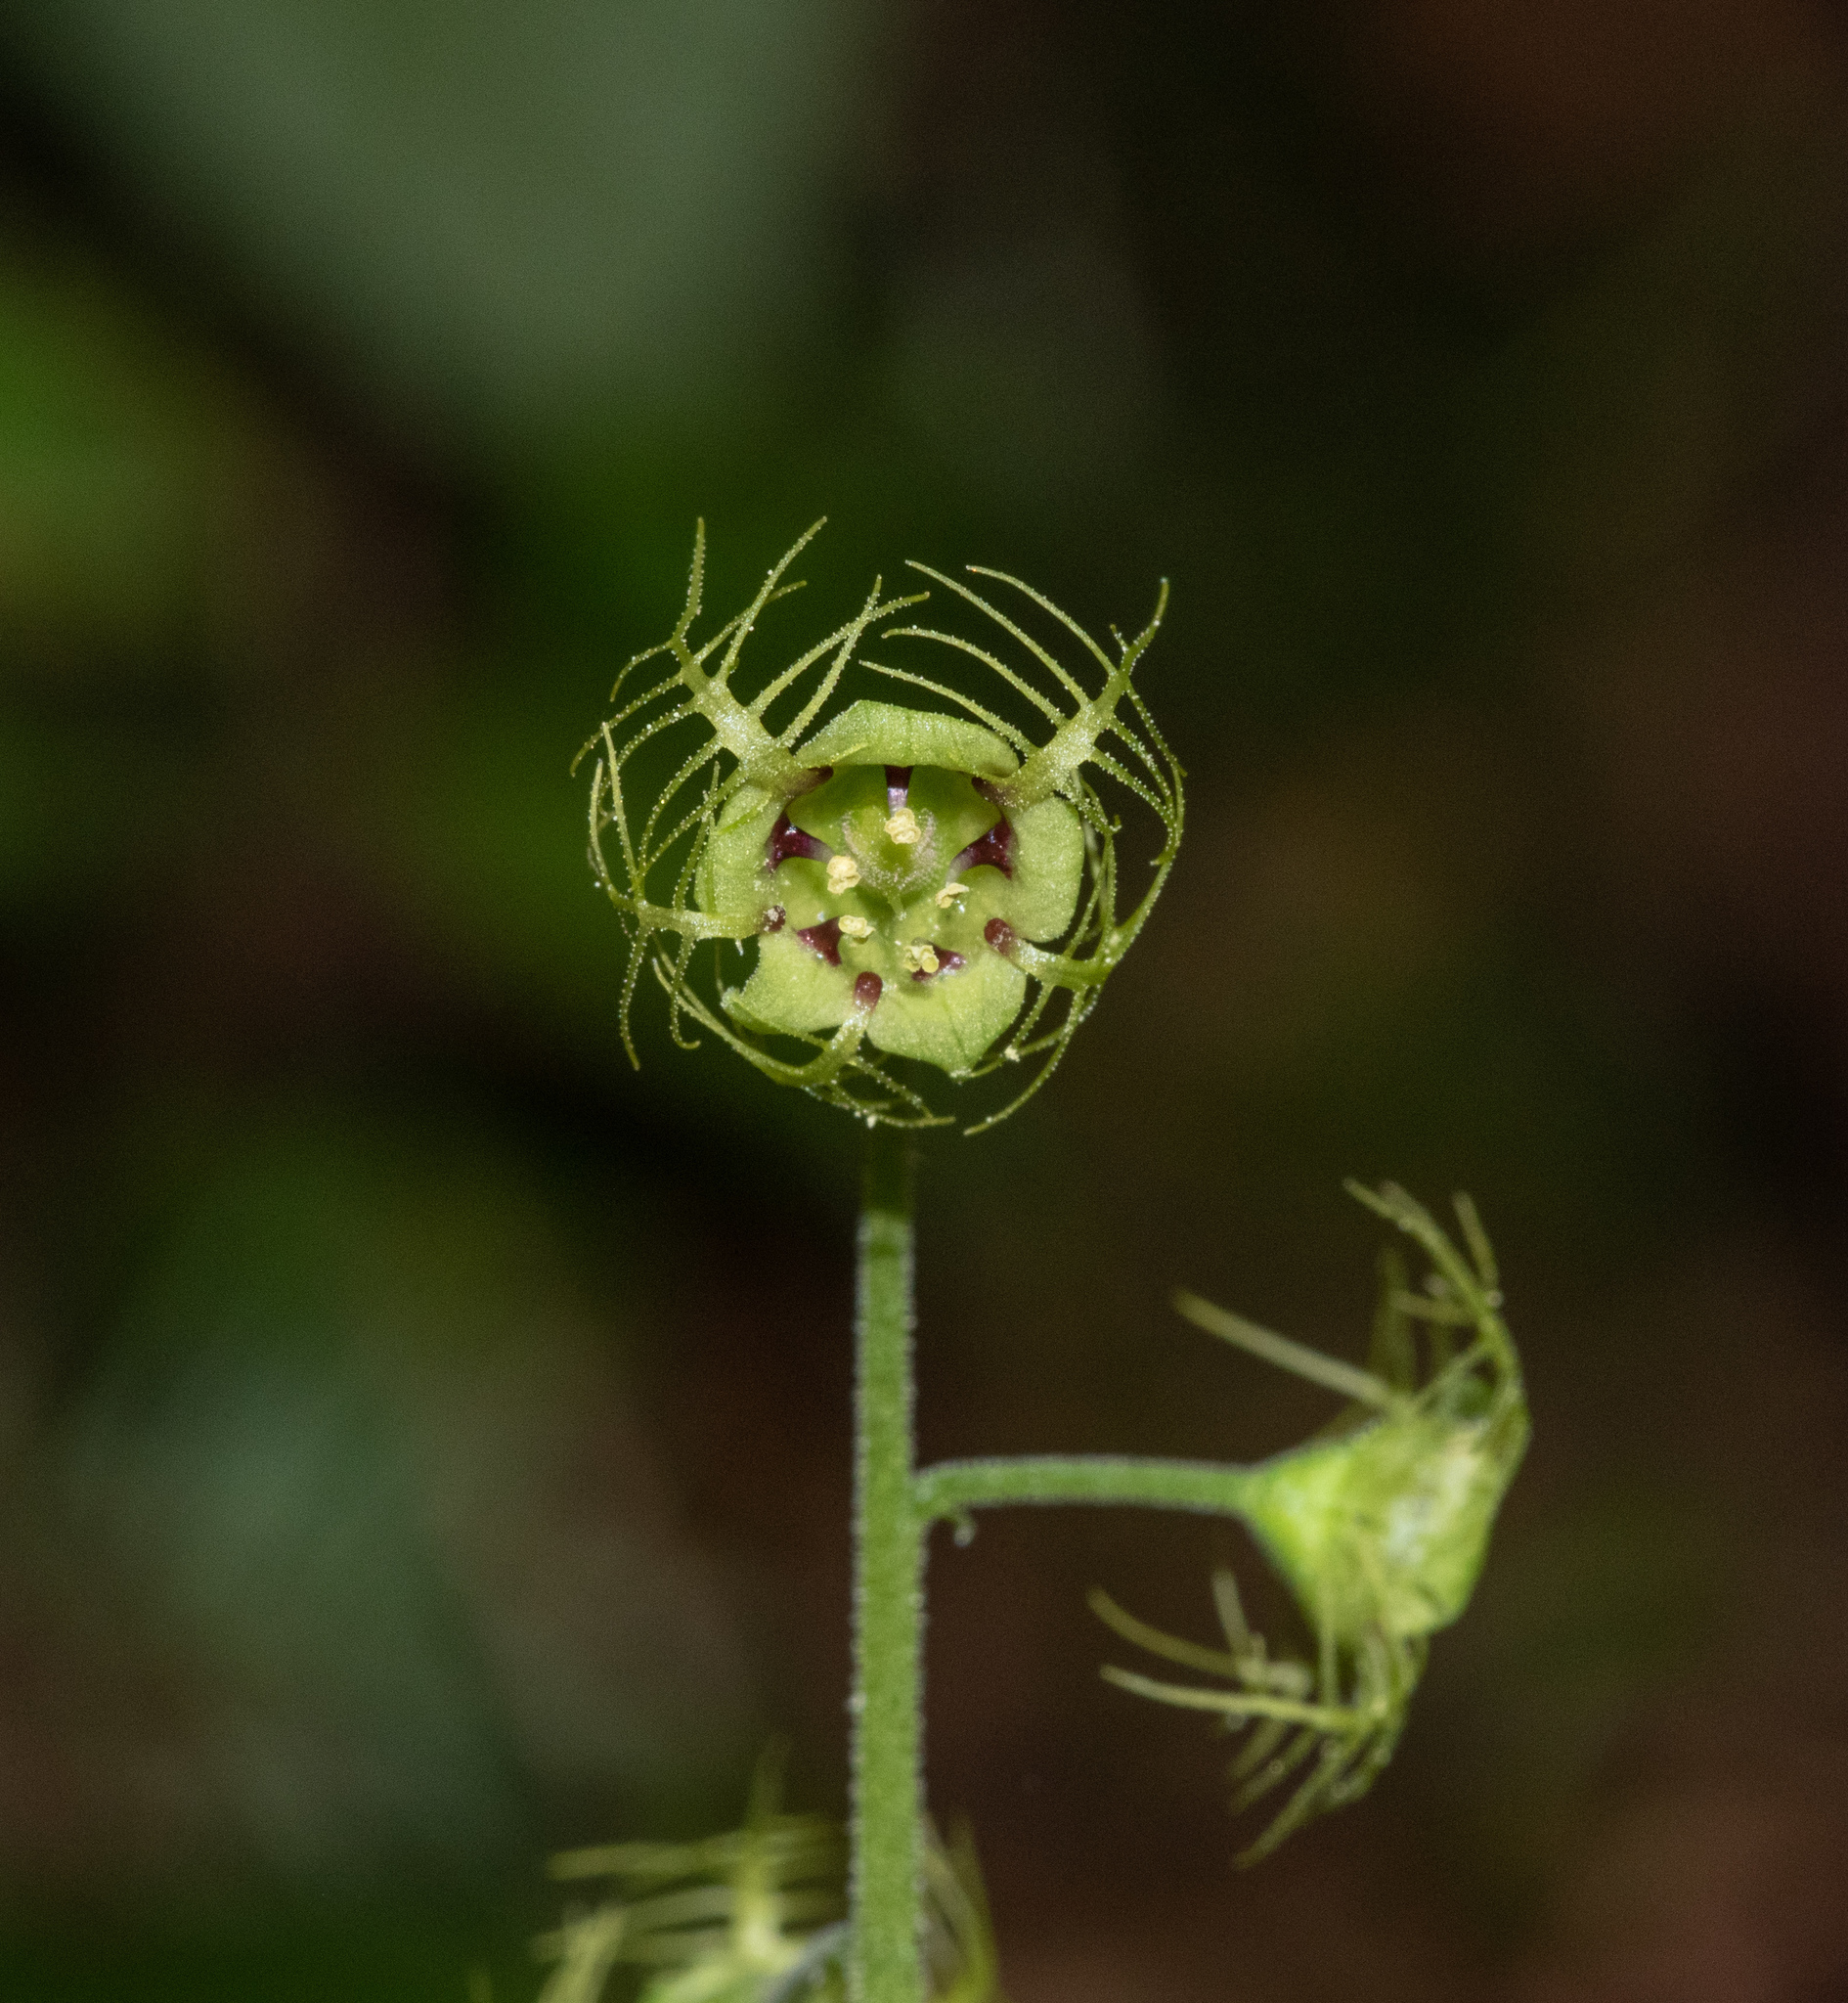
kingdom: Plantae
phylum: Tracheophyta
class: Magnoliopsida
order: Saxifragales
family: Saxifragaceae
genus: Mitellastra
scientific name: Mitellastra caulescens
